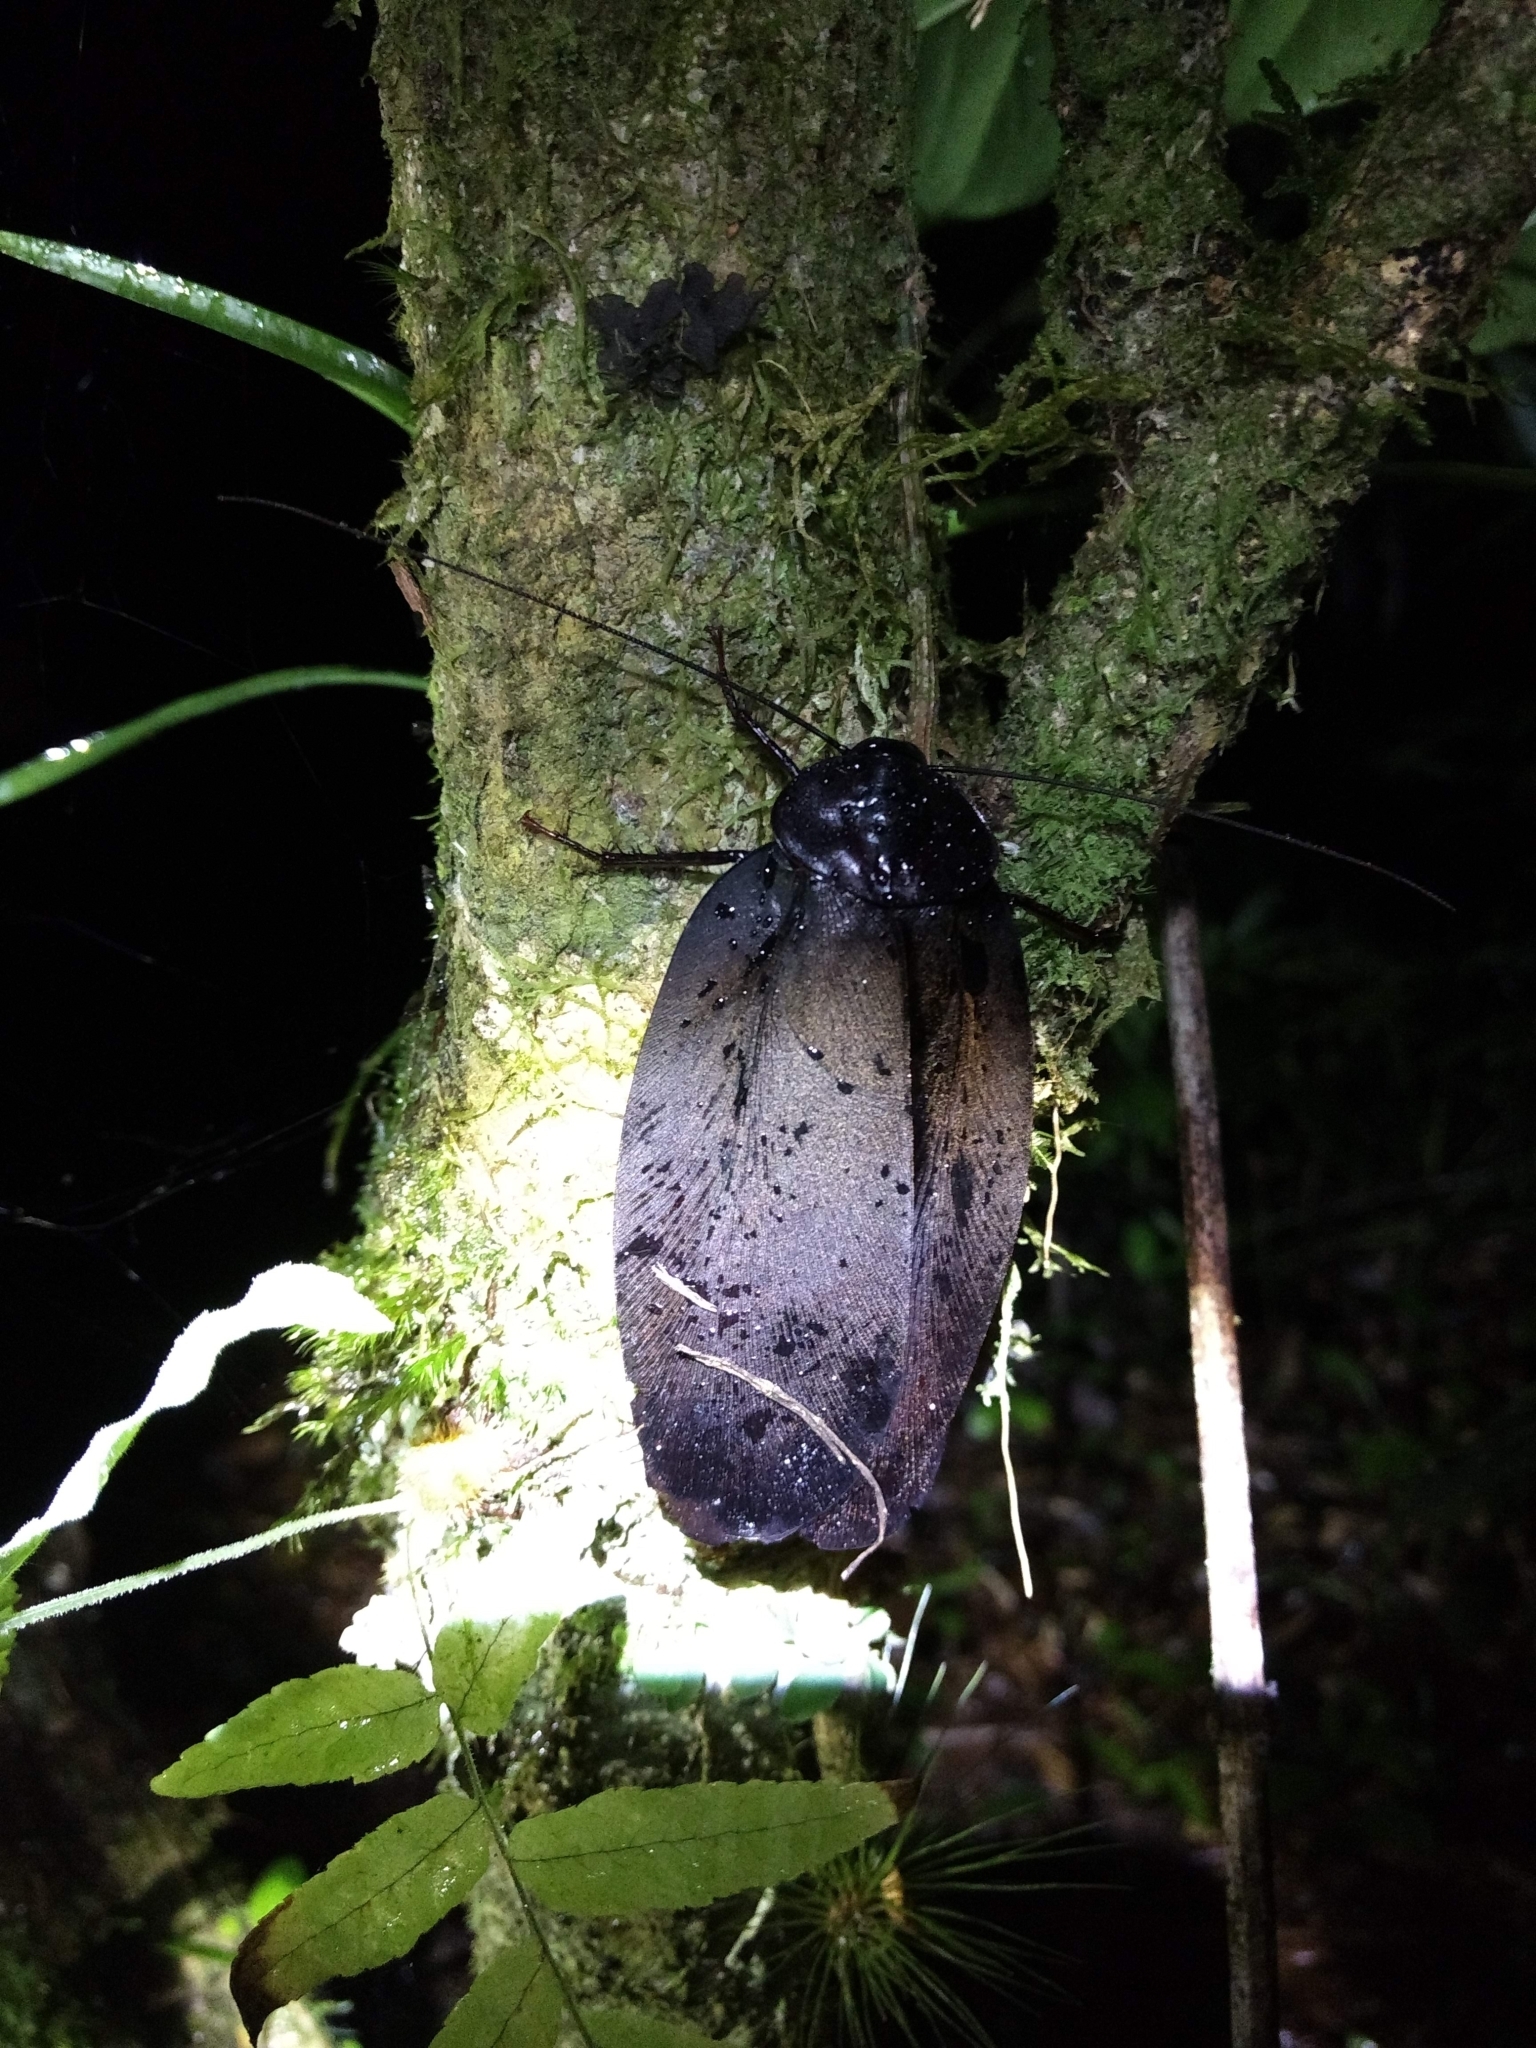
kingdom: Animalia
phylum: Arthropoda
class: Insecta
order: Blattodea
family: Ectobiidae
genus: Megaloblatta
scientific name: Megaloblatta blaberoides
